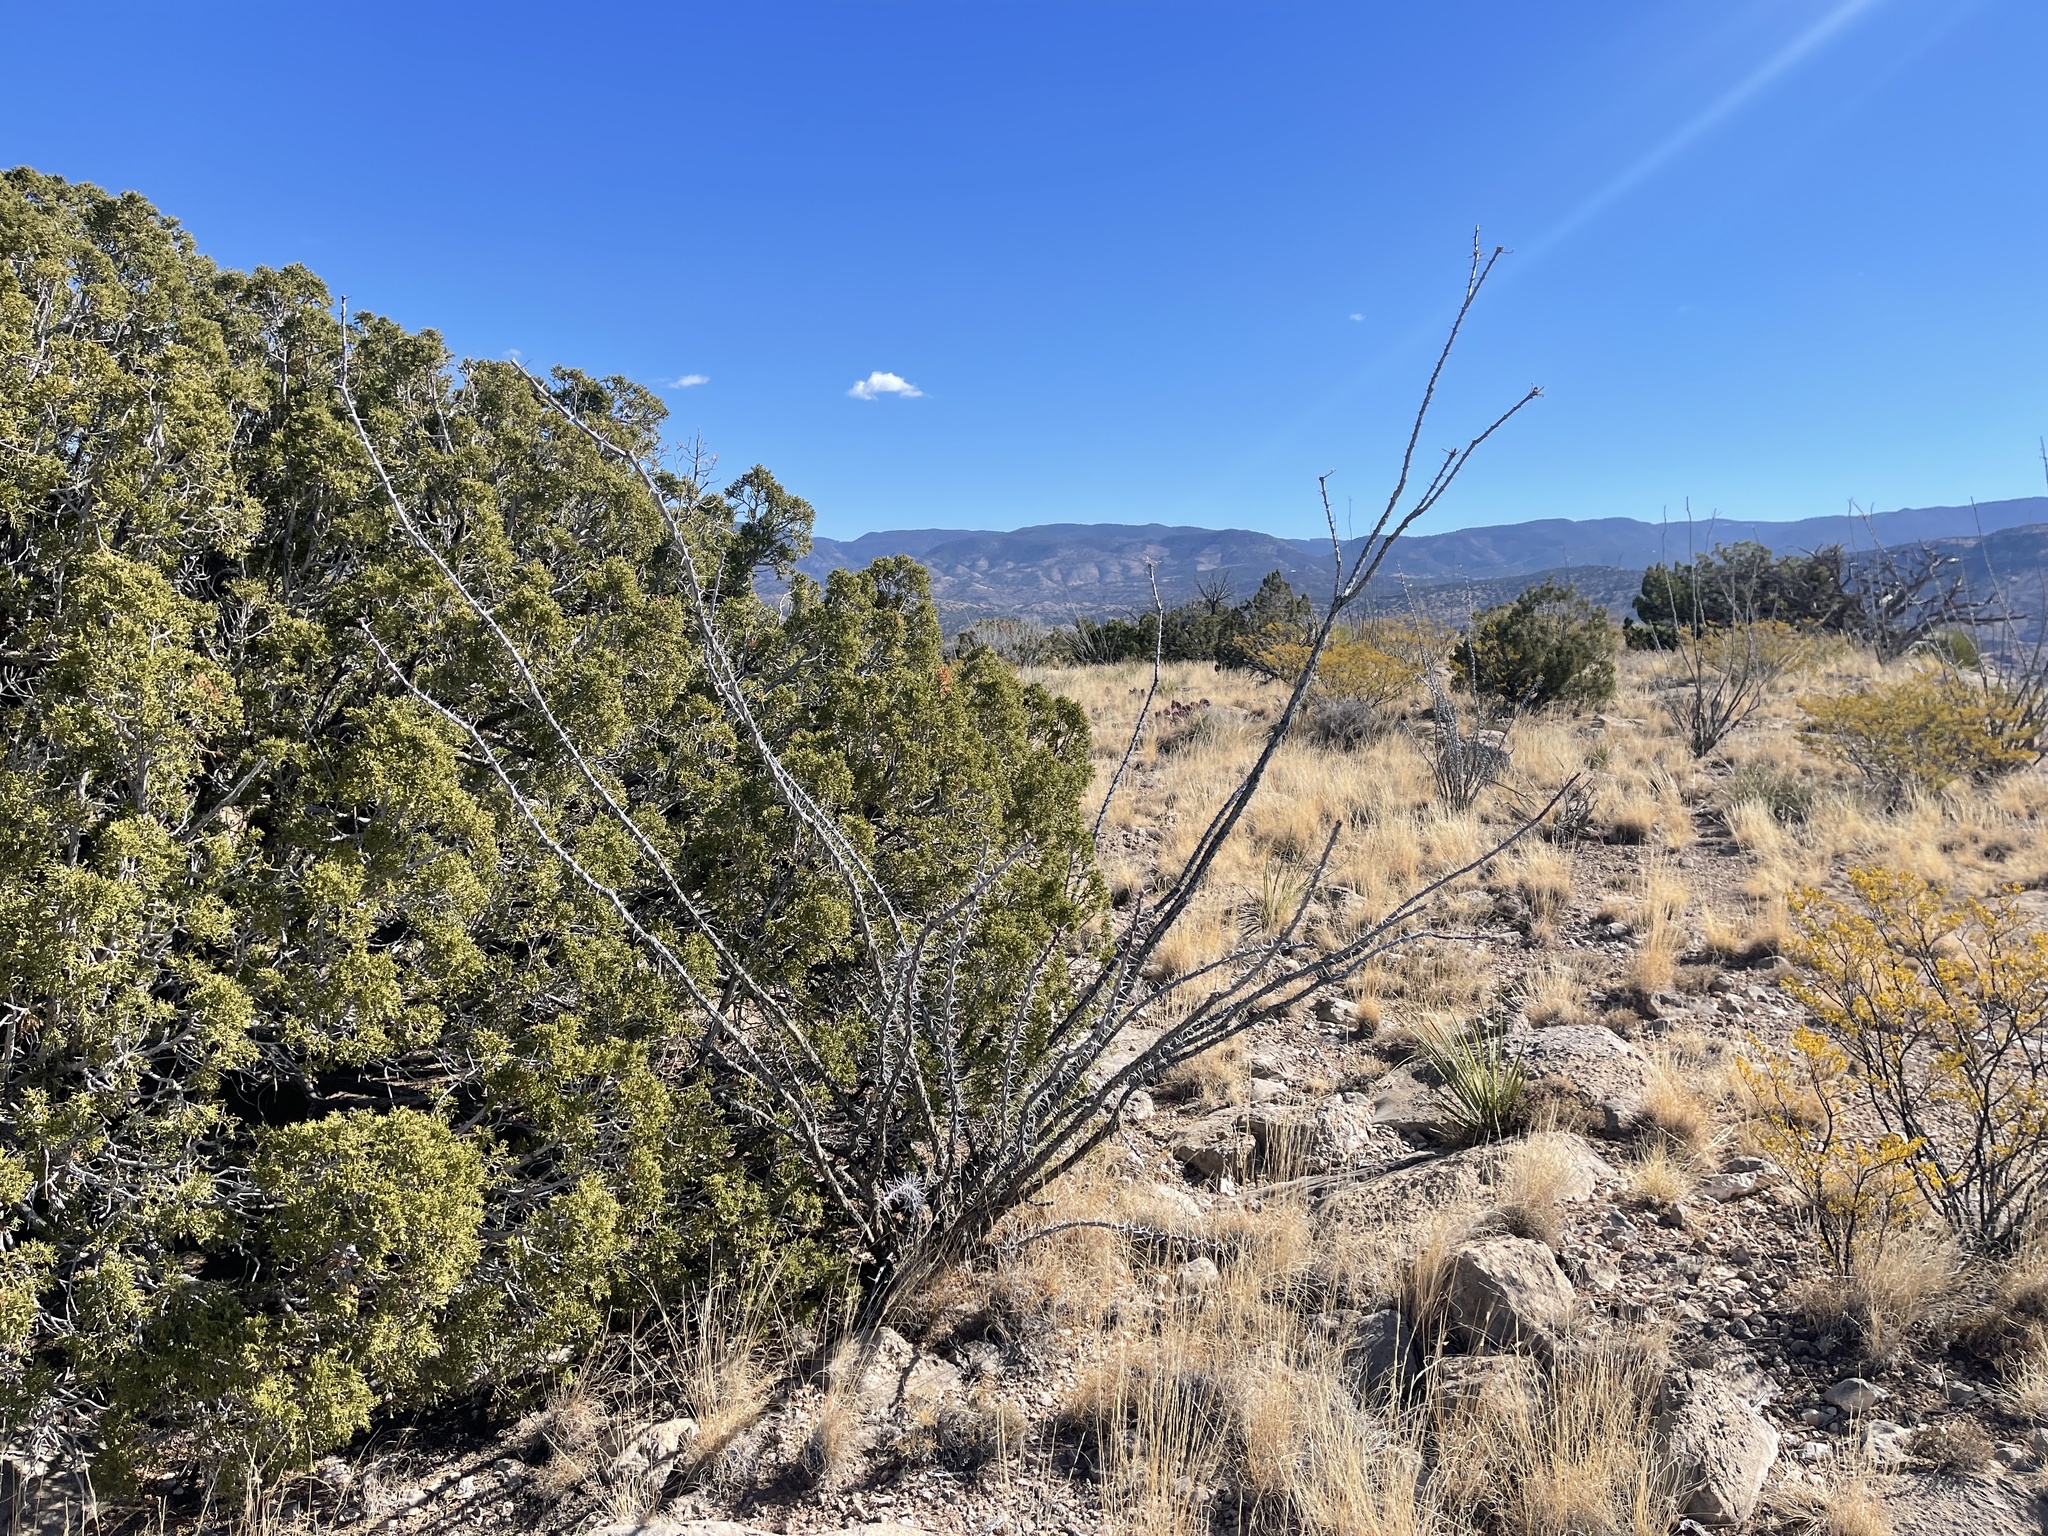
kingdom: Plantae
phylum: Tracheophyta
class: Magnoliopsida
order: Ericales
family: Fouquieriaceae
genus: Fouquieria
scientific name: Fouquieria splendens
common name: Vine-cactus
